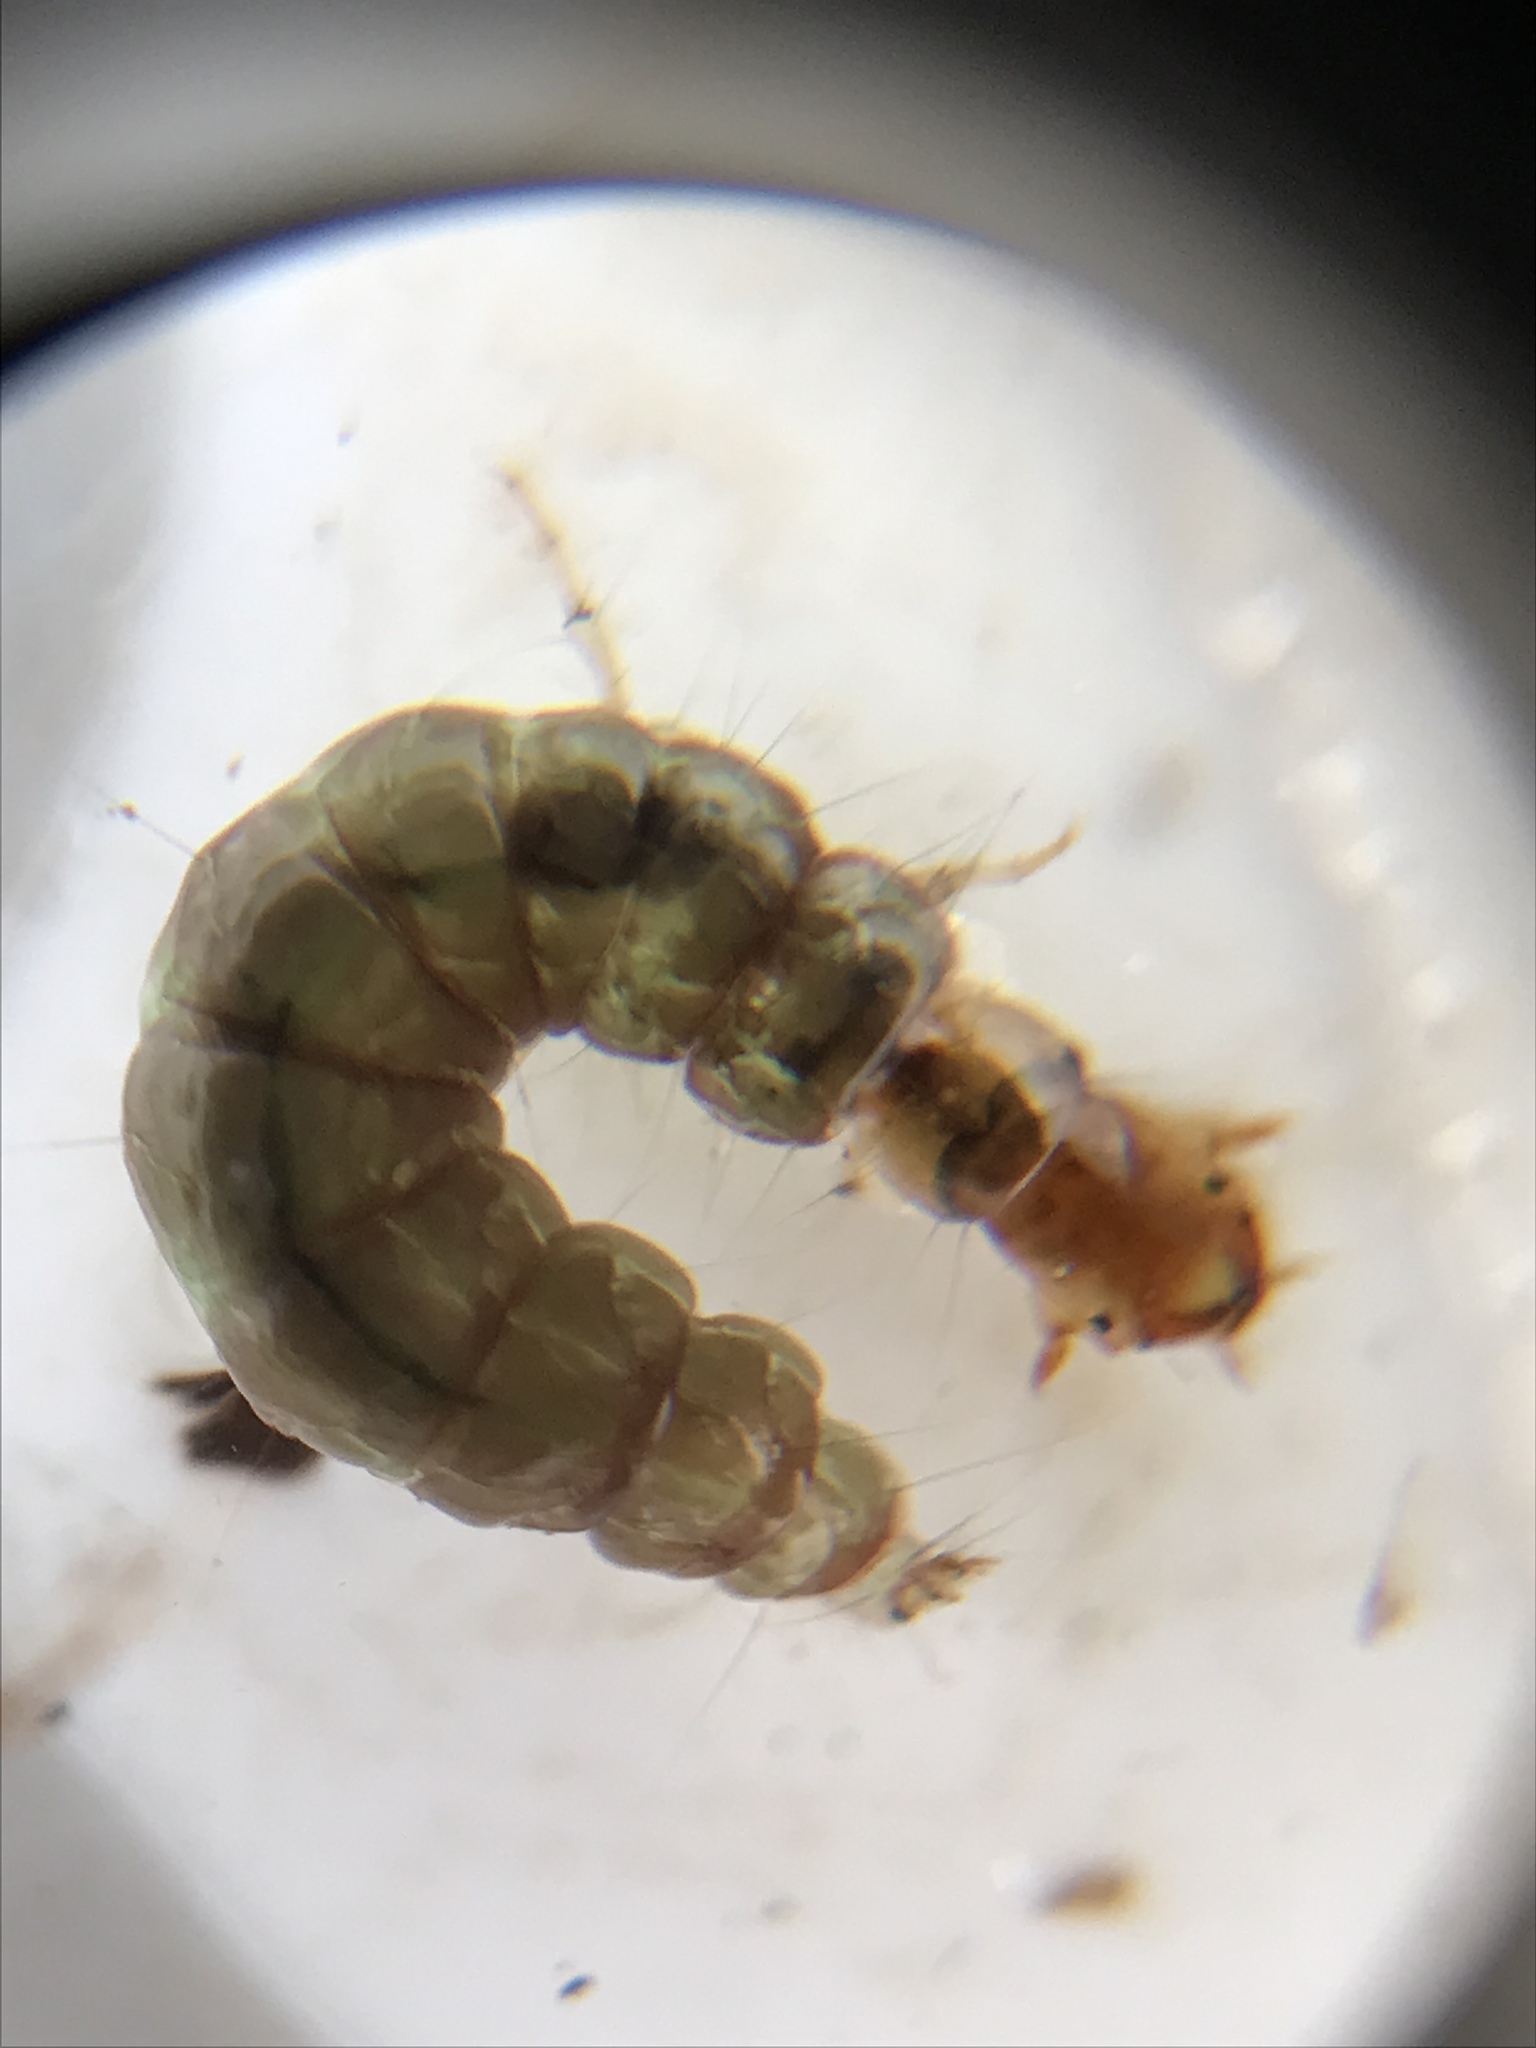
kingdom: Animalia
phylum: Arthropoda
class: Insecta
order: Trichoptera
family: Hydrobiosidae
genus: Psilochorema
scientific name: Psilochorema tautoru
